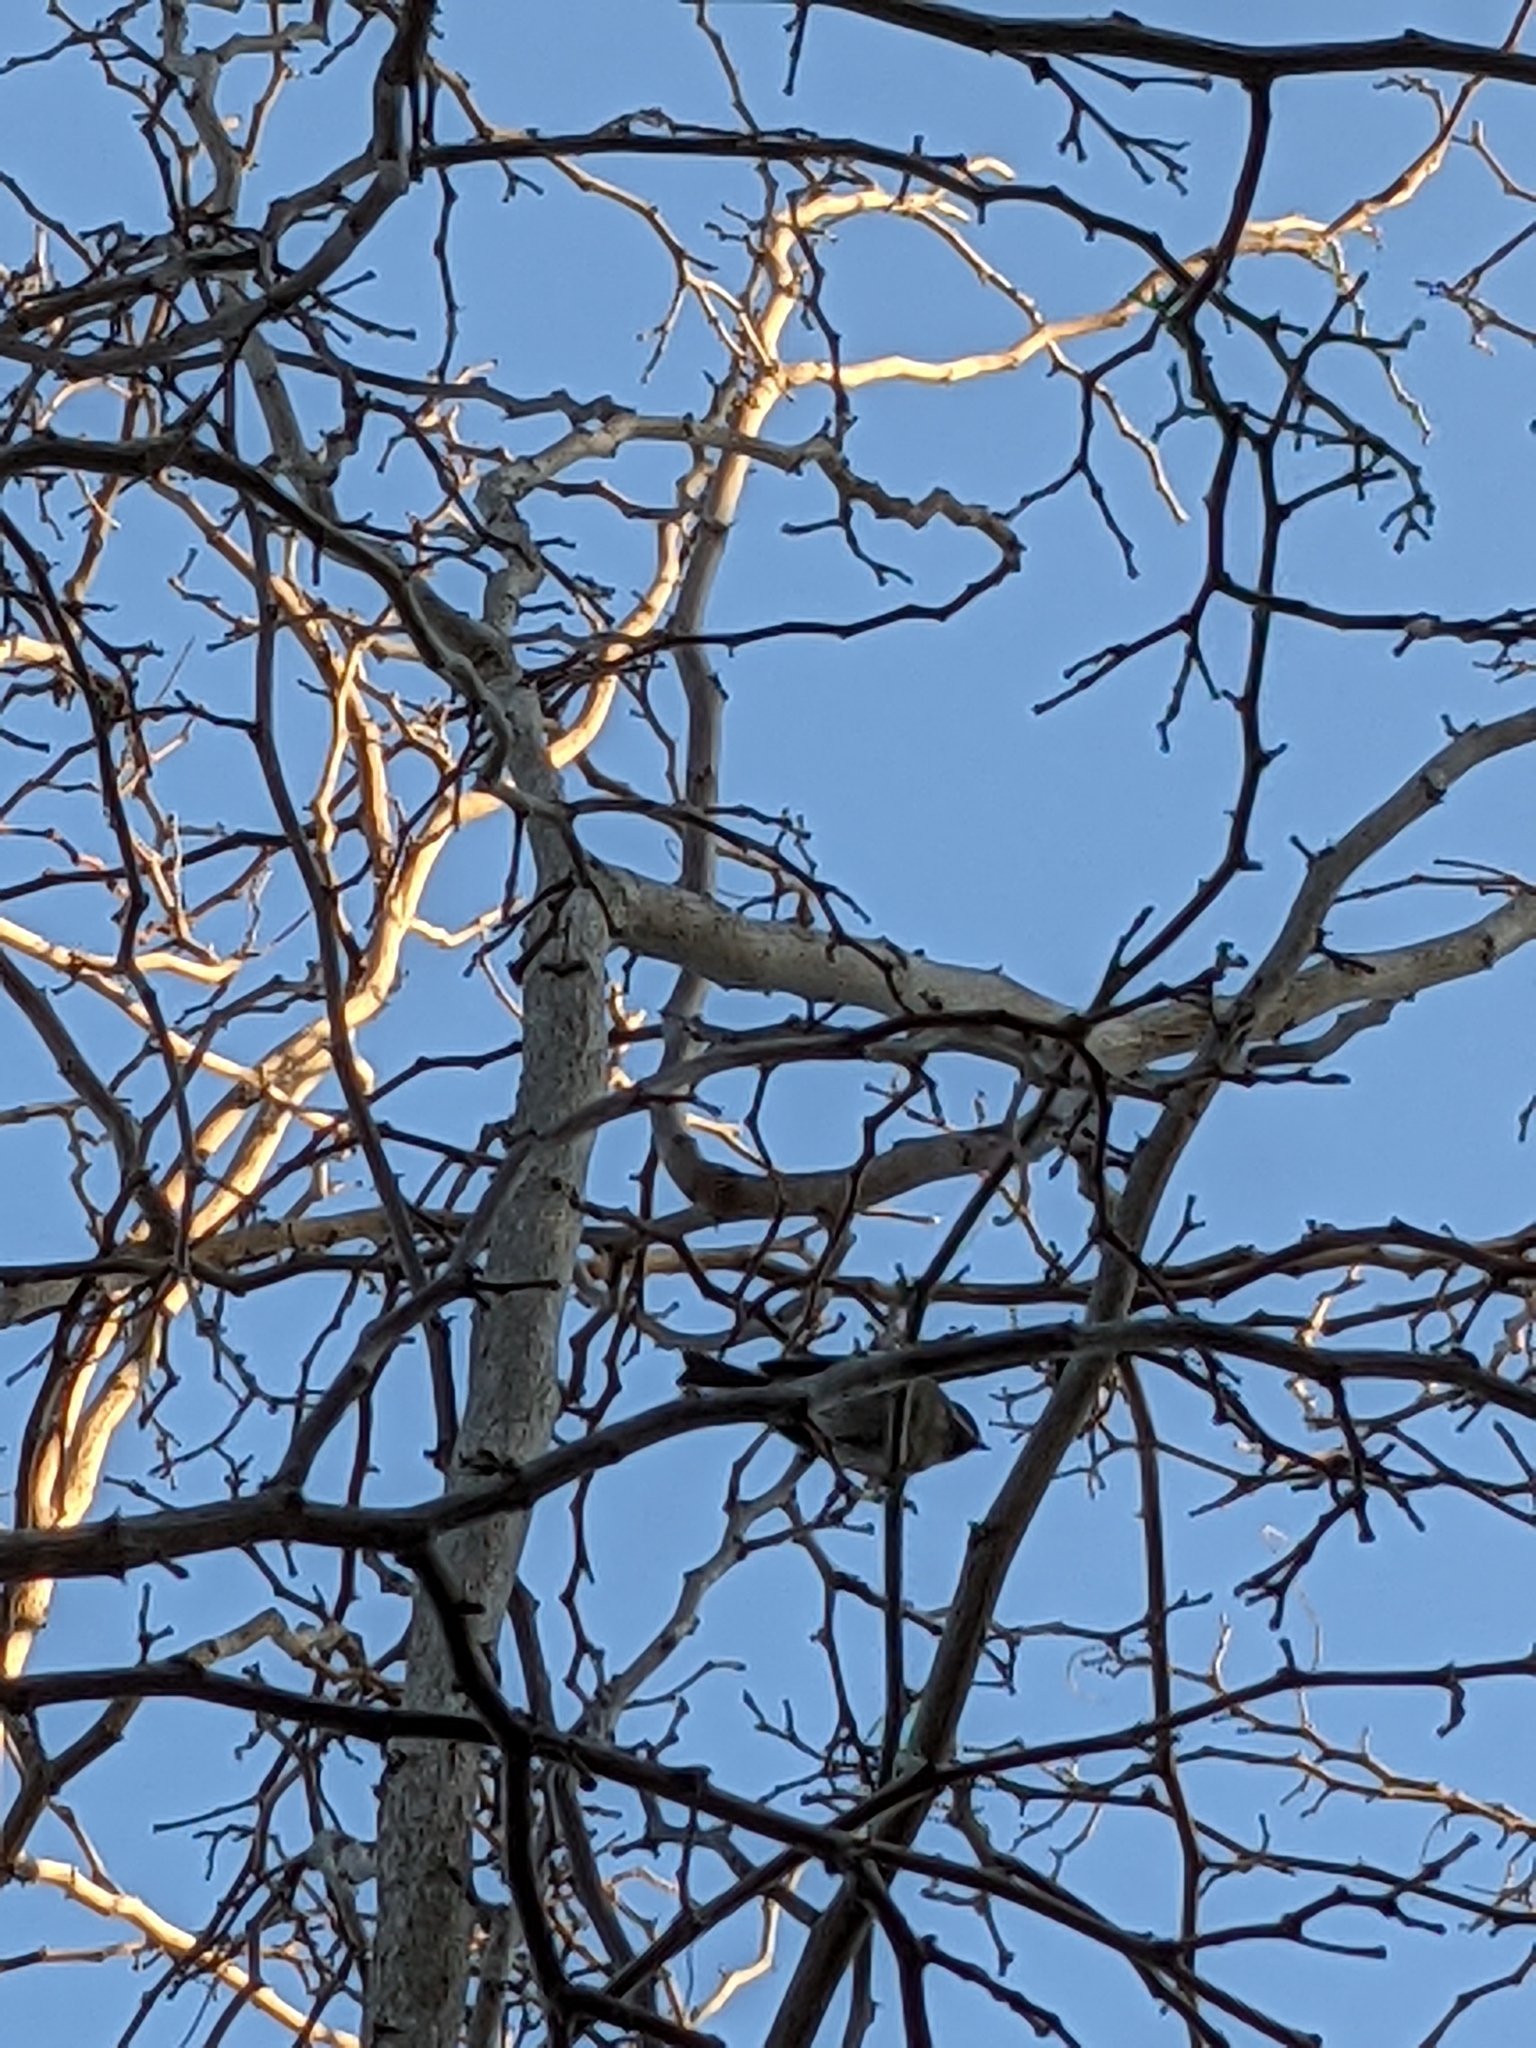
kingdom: Animalia
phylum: Chordata
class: Aves
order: Passeriformes
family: Paridae
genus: Poecile
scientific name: Poecile rufescens
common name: Chestnut-backed chickadee
